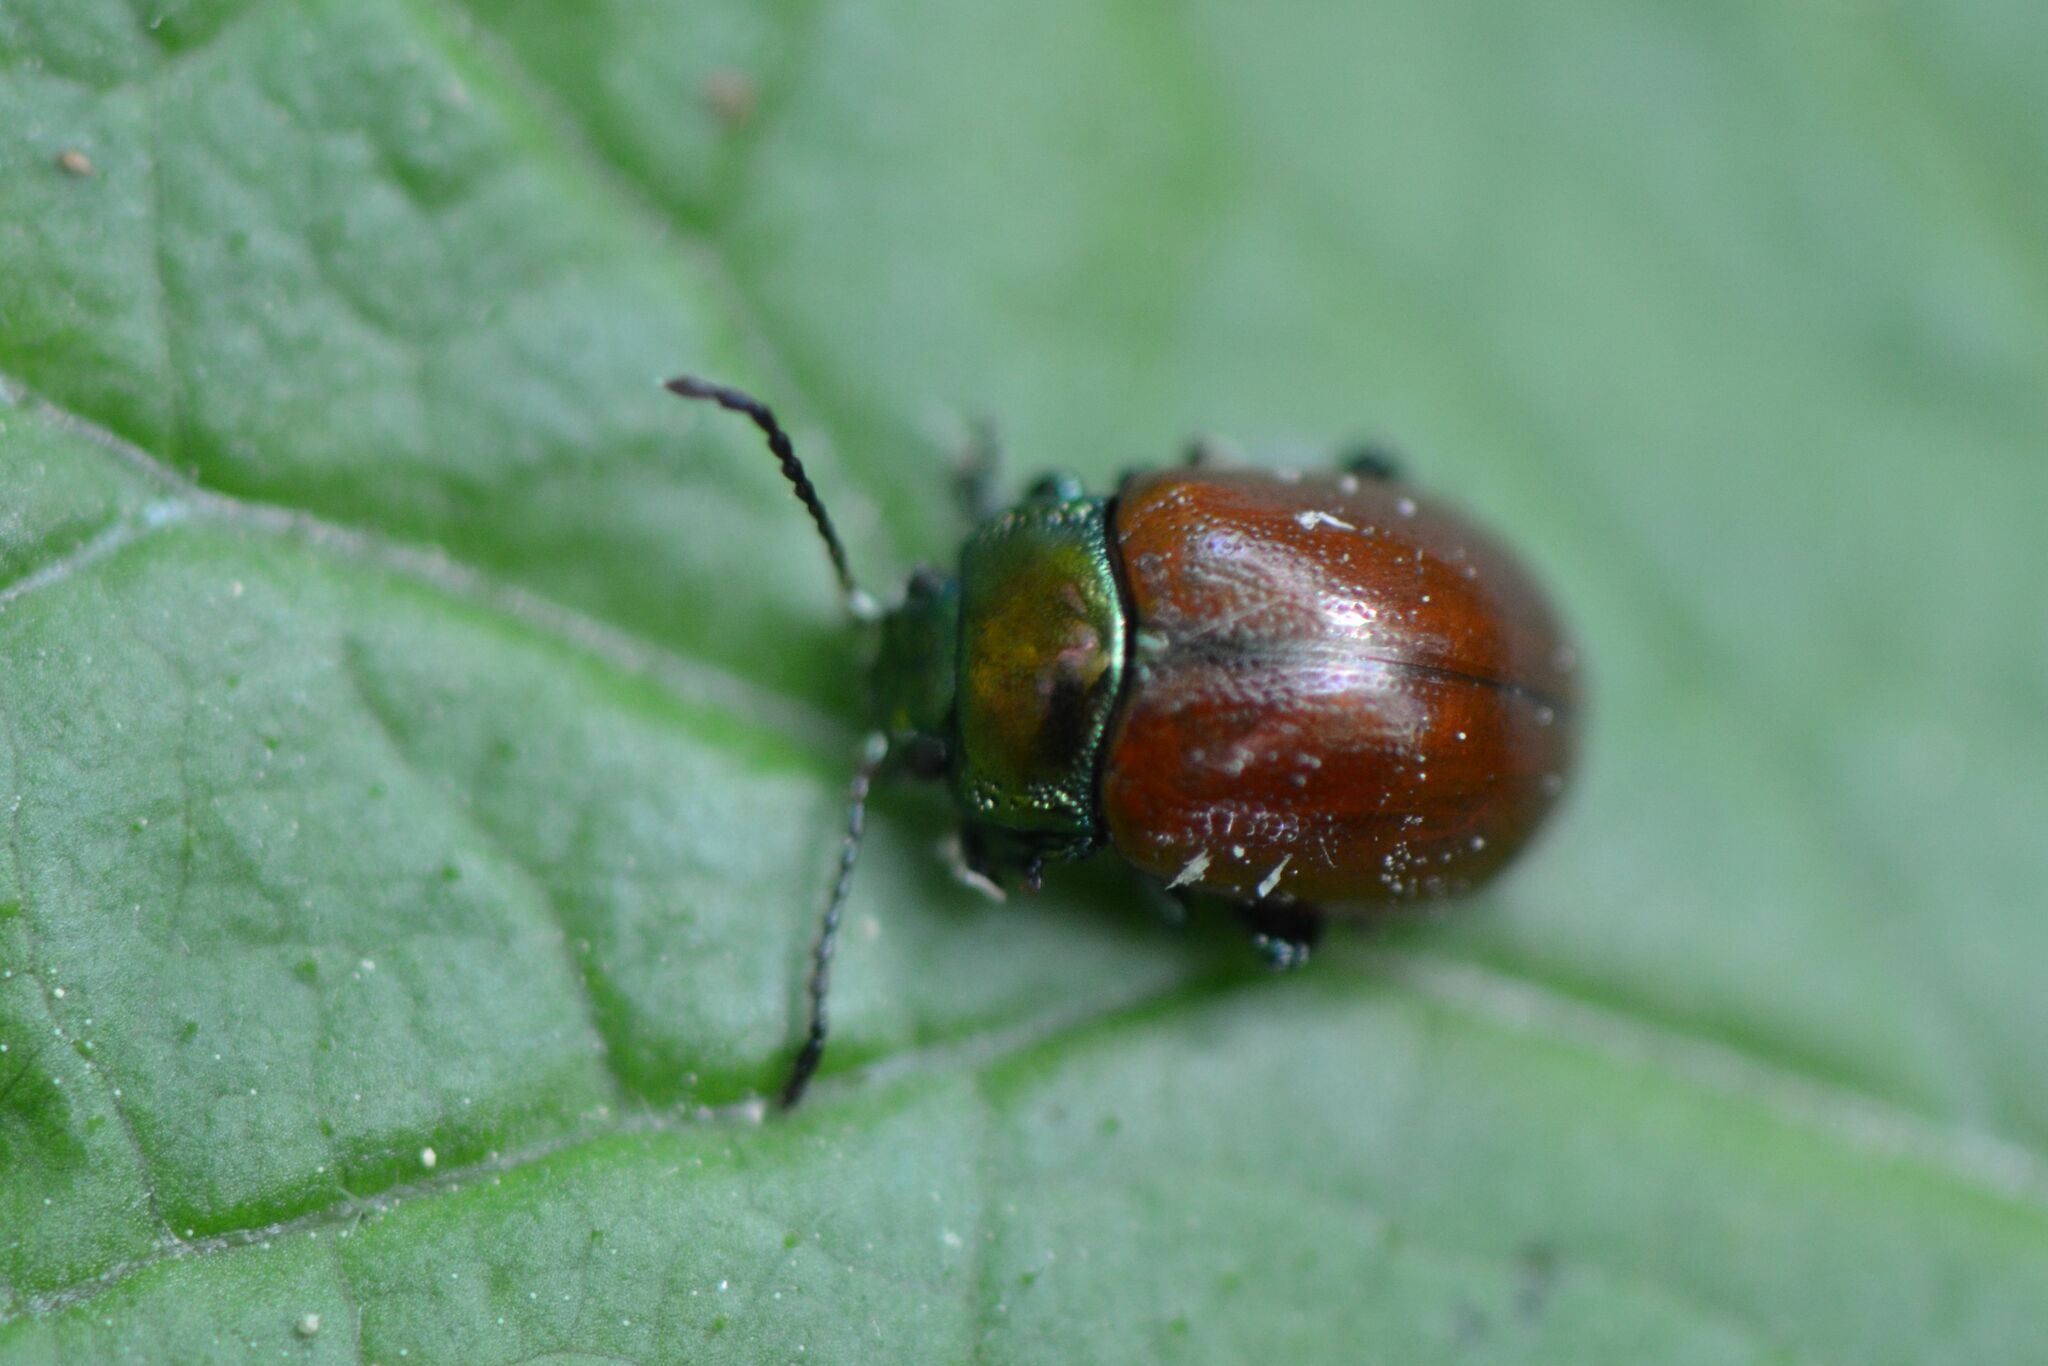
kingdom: Animalia
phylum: Arthropoda
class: Insecta
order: Coleoptera
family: Chrysomelidae
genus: Chrysomela
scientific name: Chrysomela polita
